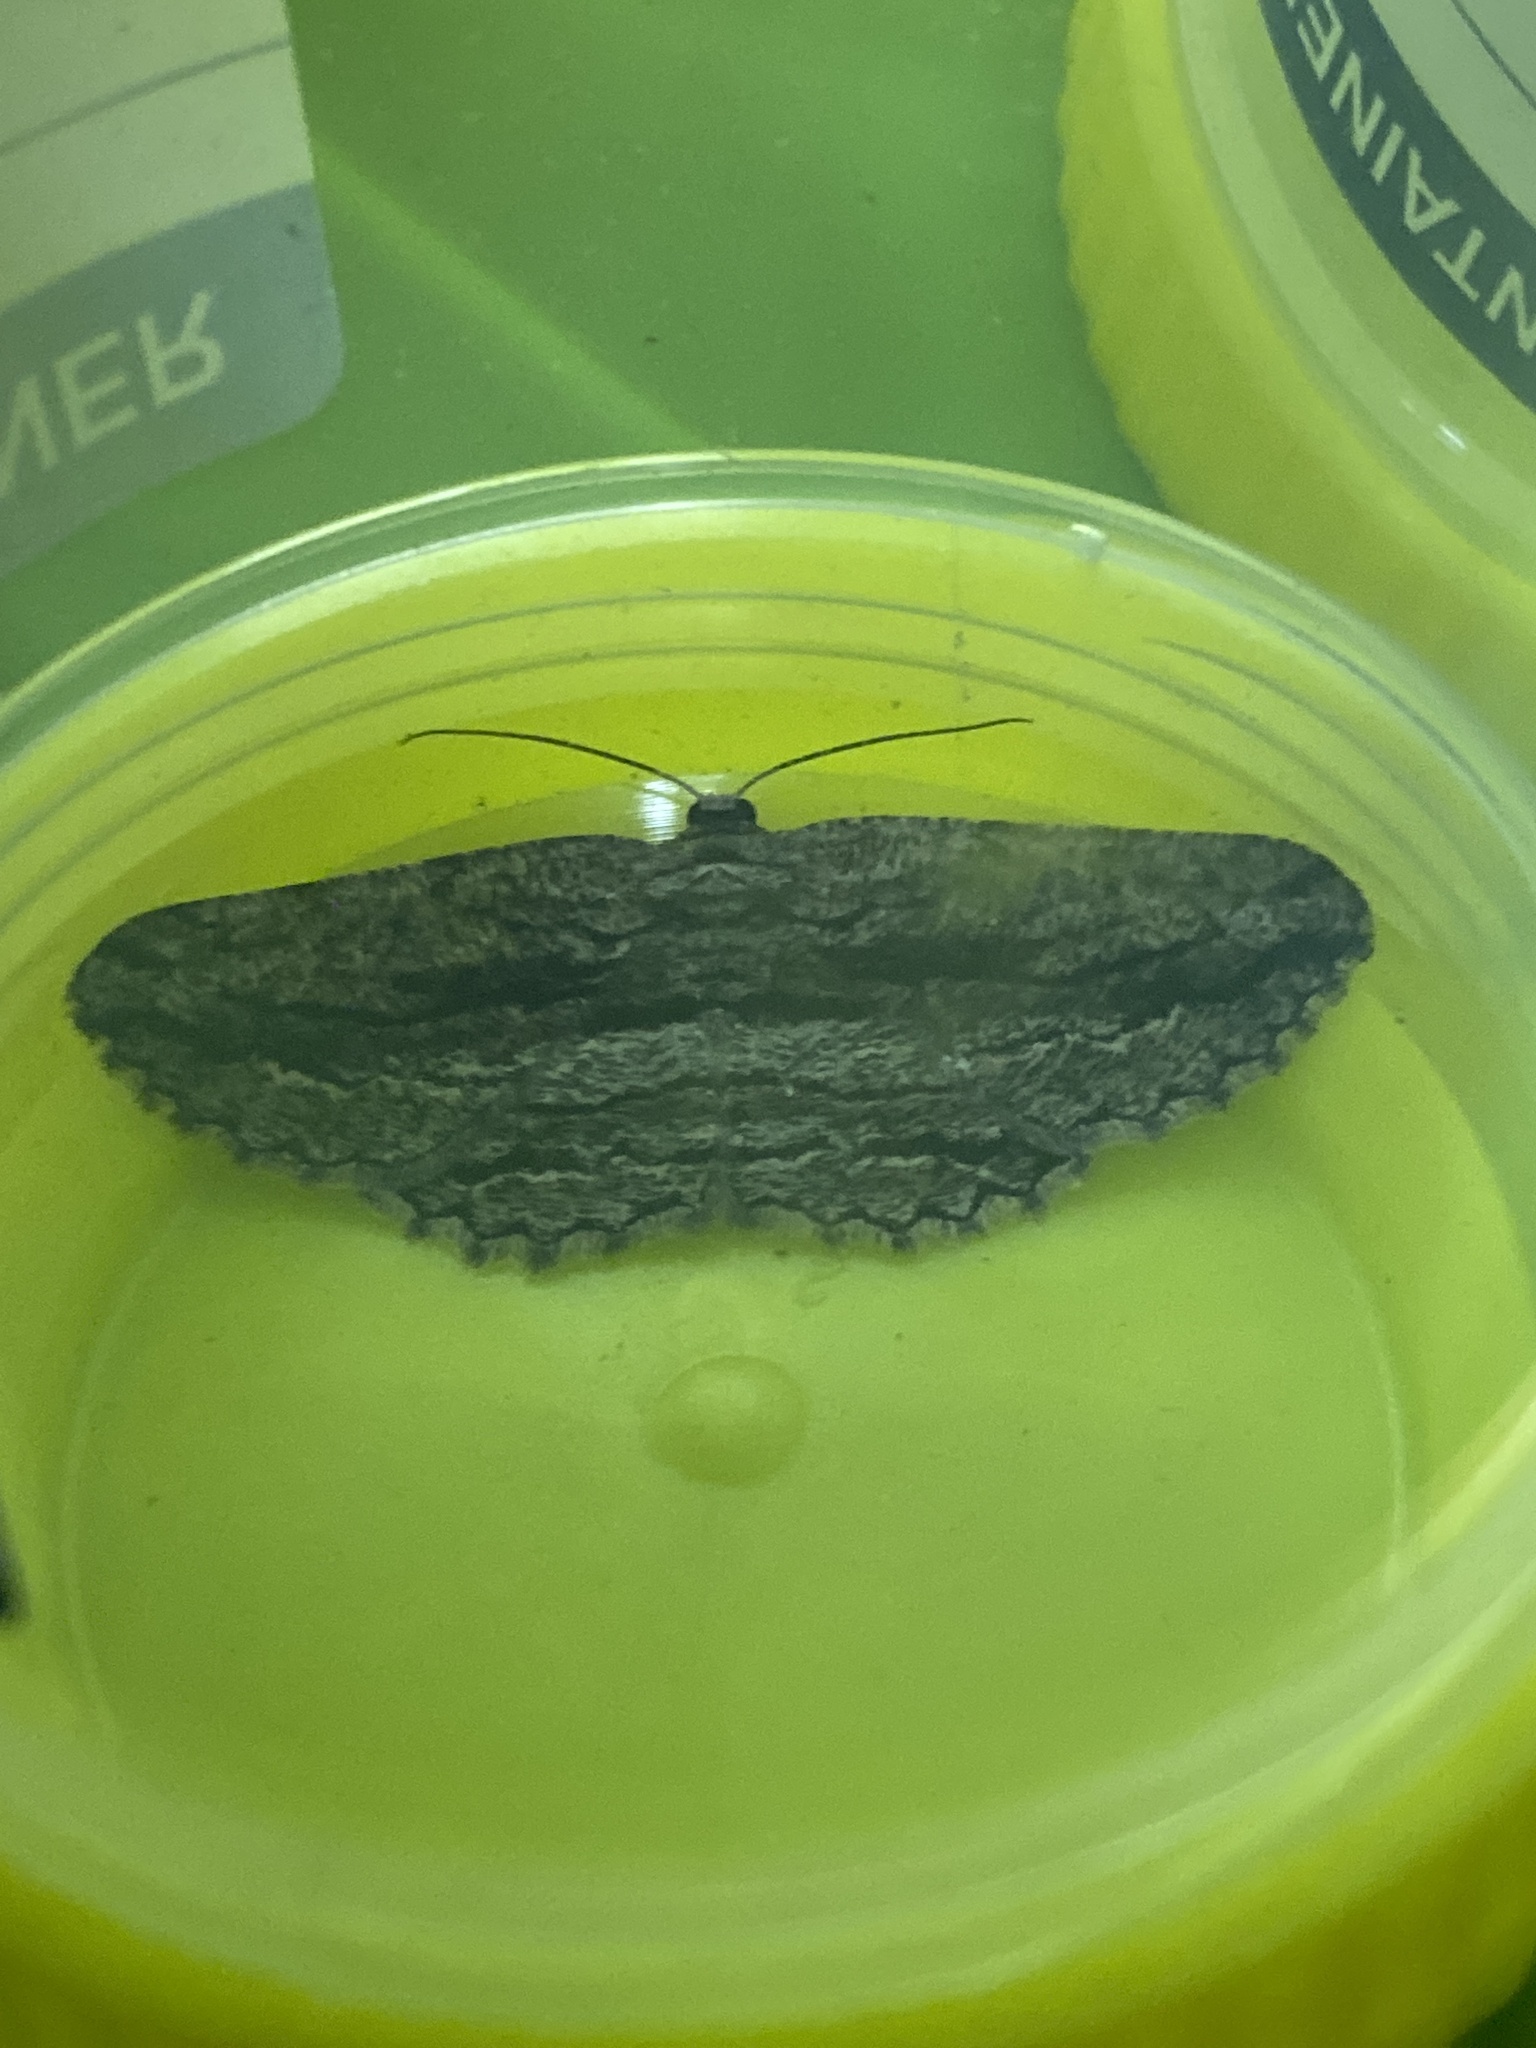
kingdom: Animalia
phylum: Arthropoda
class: Insecta
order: Lepidoptera
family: Geometridae
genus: Scioglyptis
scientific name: Scioglyptis canescaria
